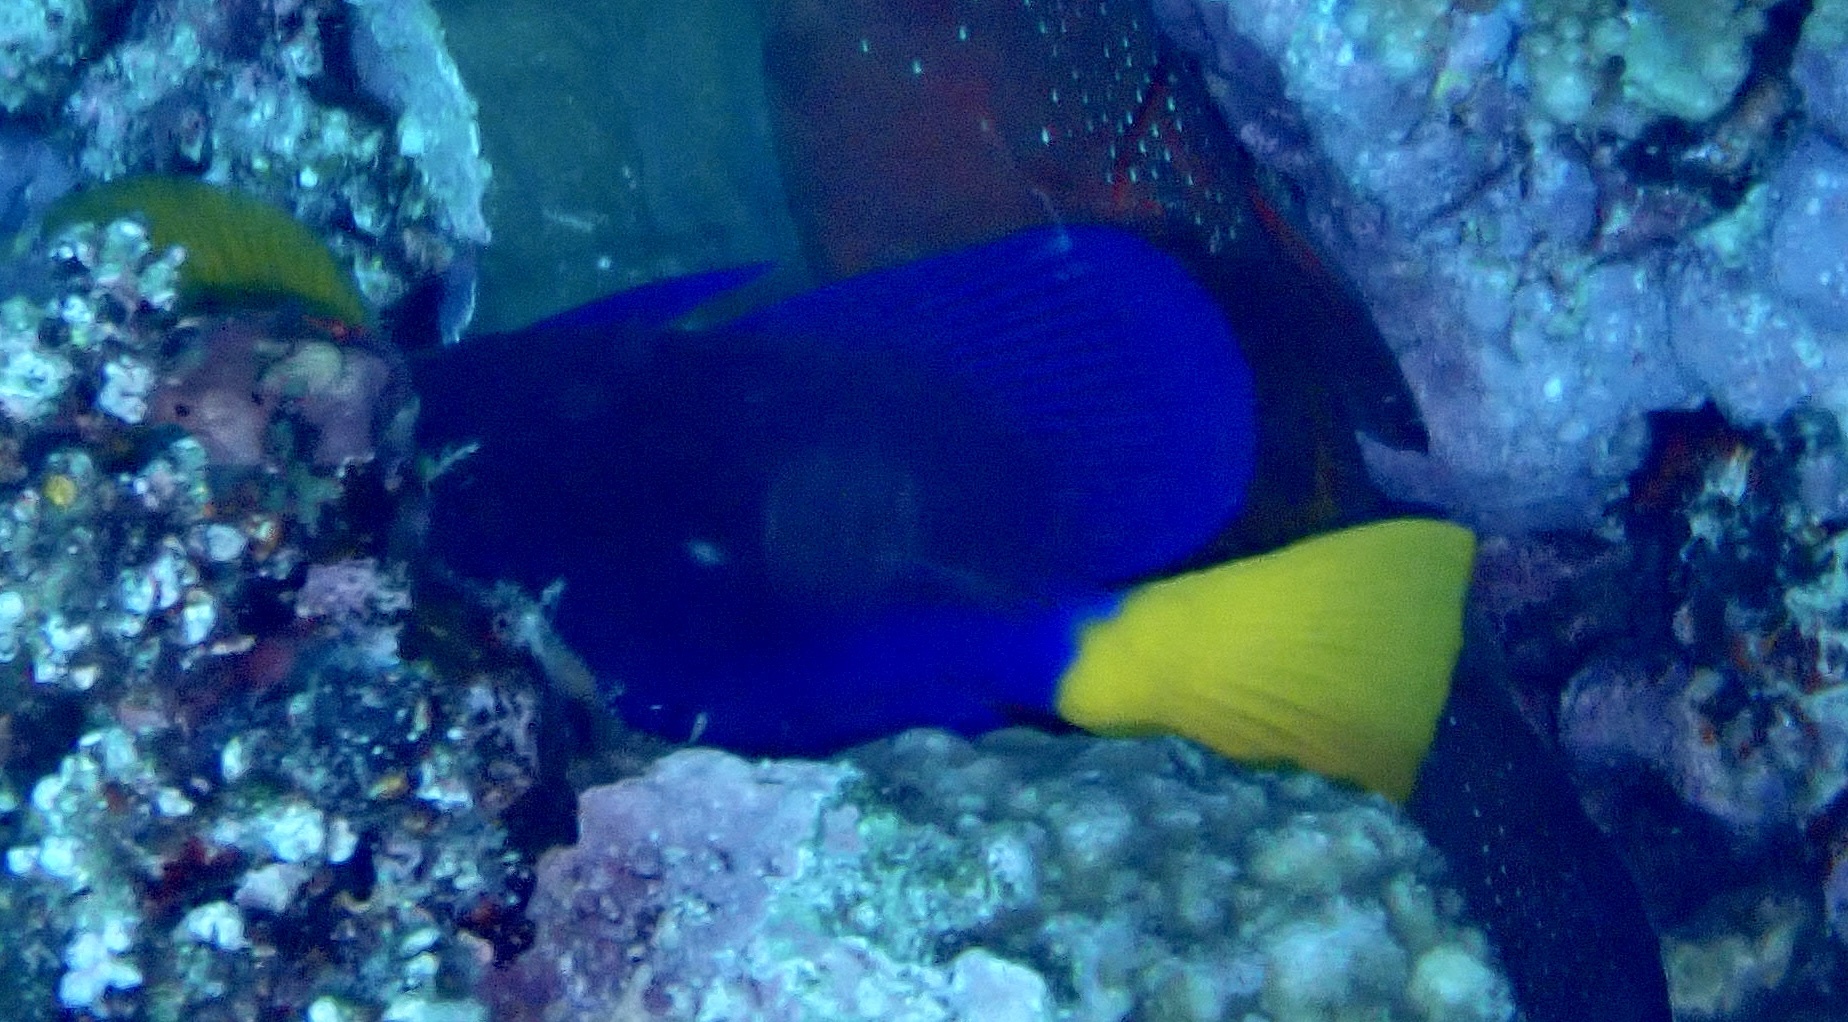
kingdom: Animalia
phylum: Chordata
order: Perciformes
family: Acanthuridae
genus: Zebrasoma
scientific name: Zebrasoma xanthurum
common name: Purple tang
